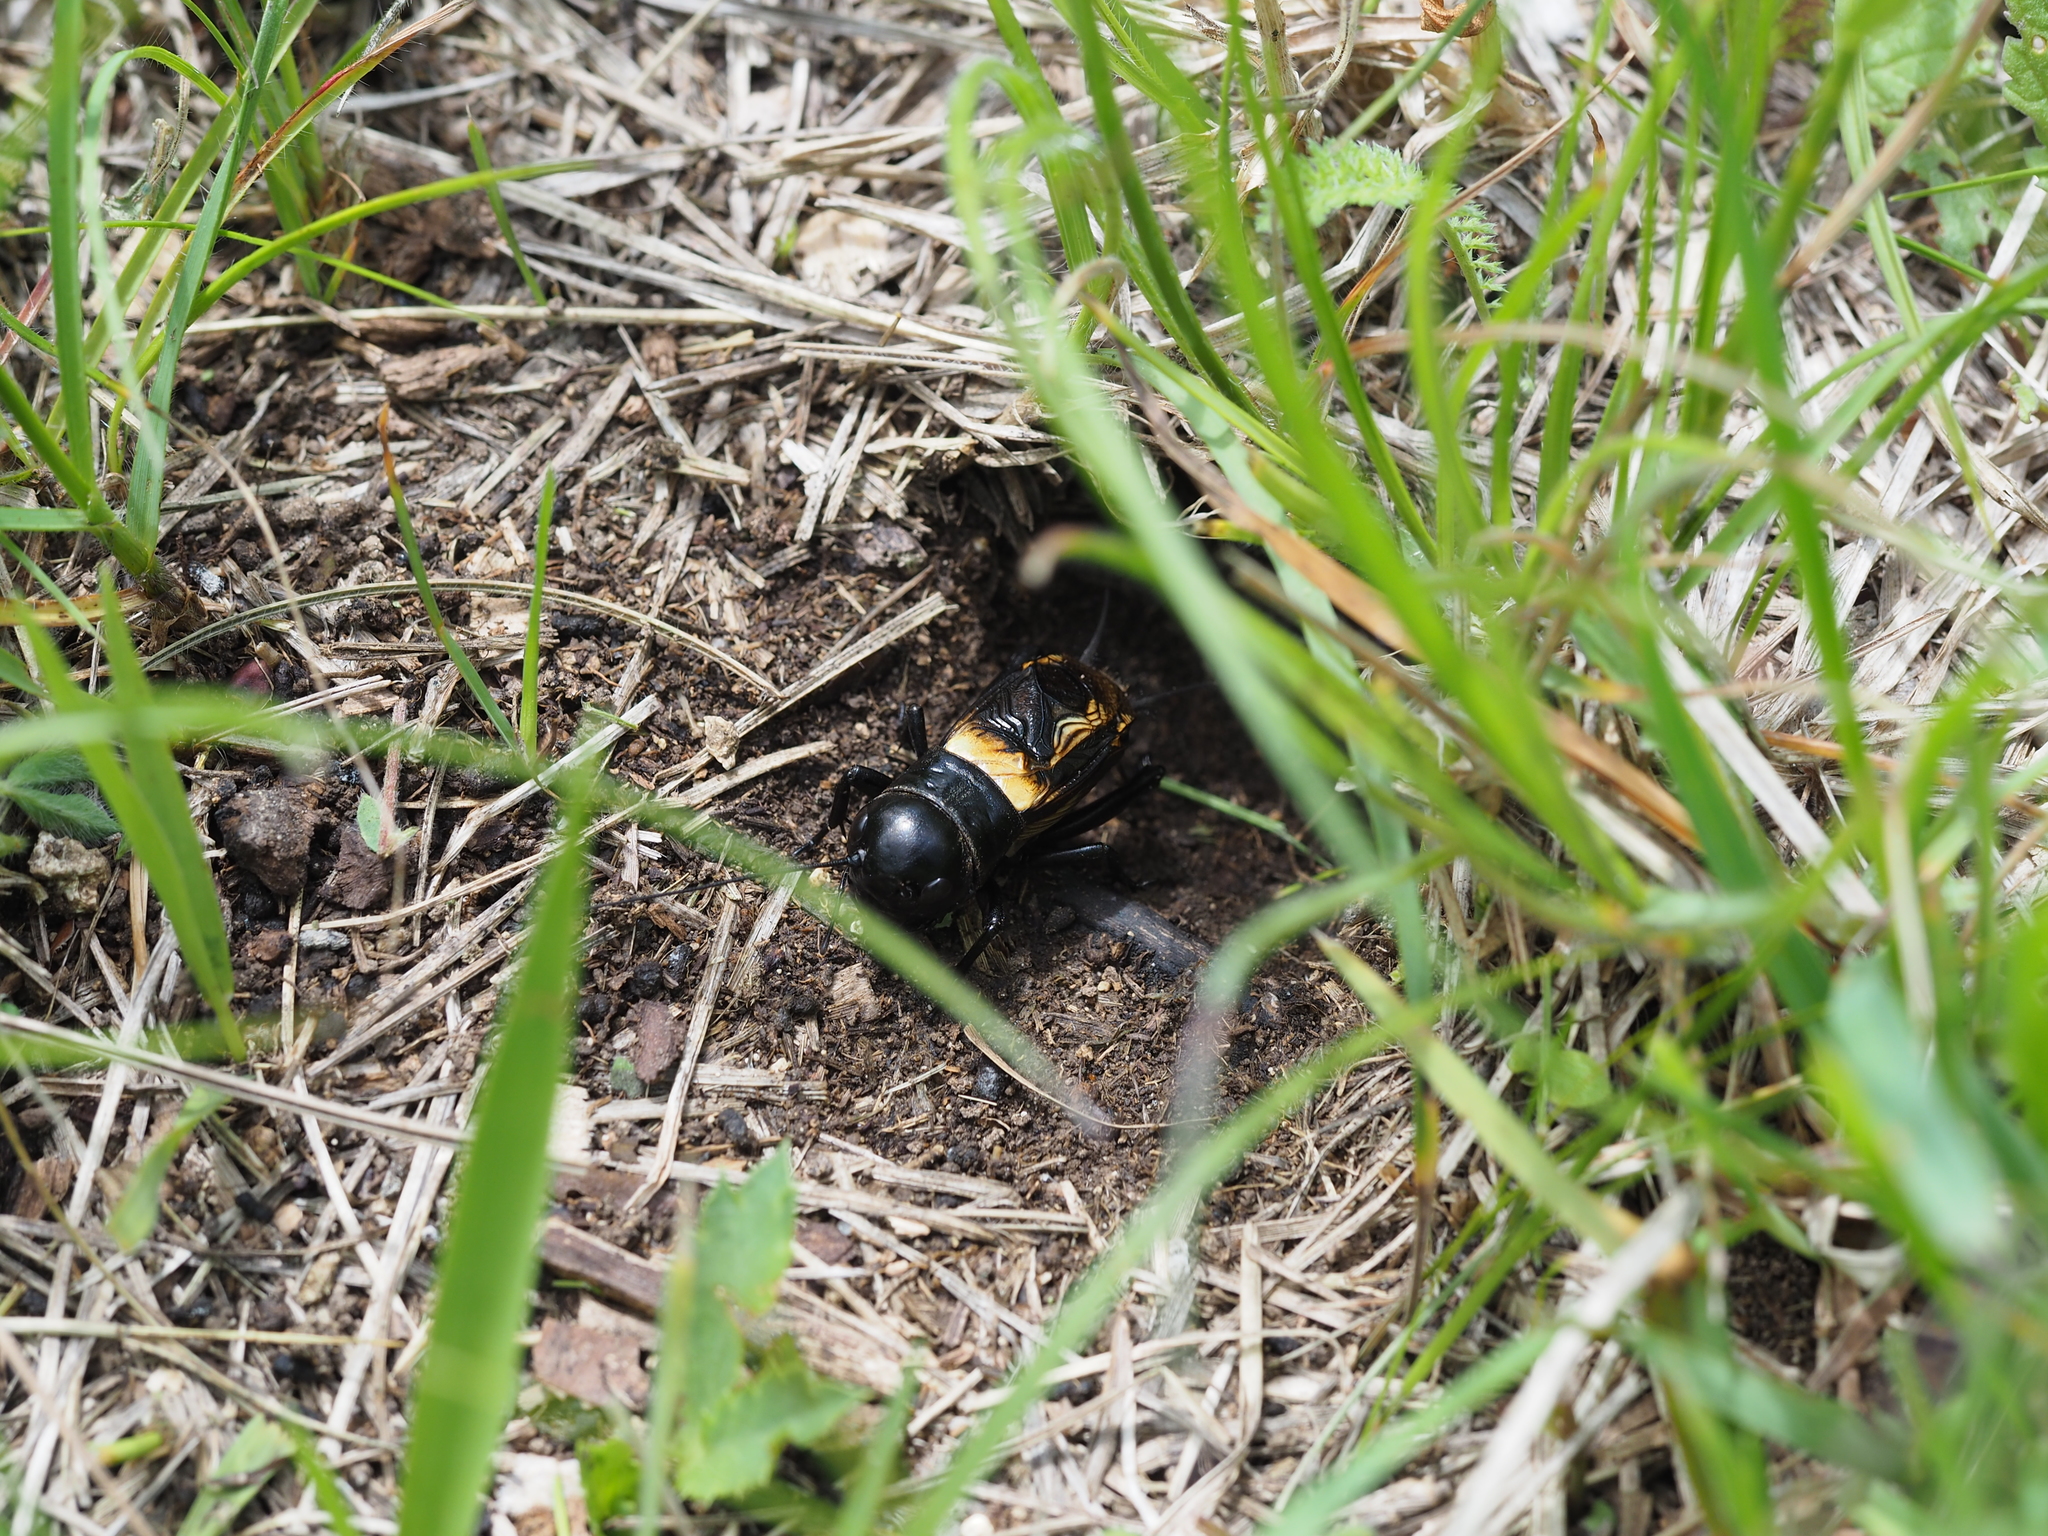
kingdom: Animalia
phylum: Arthropoda
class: Insecta
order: Orthoptera
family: Gryllidae
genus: Gryllus
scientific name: Gryllus campestris
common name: Field cricket
